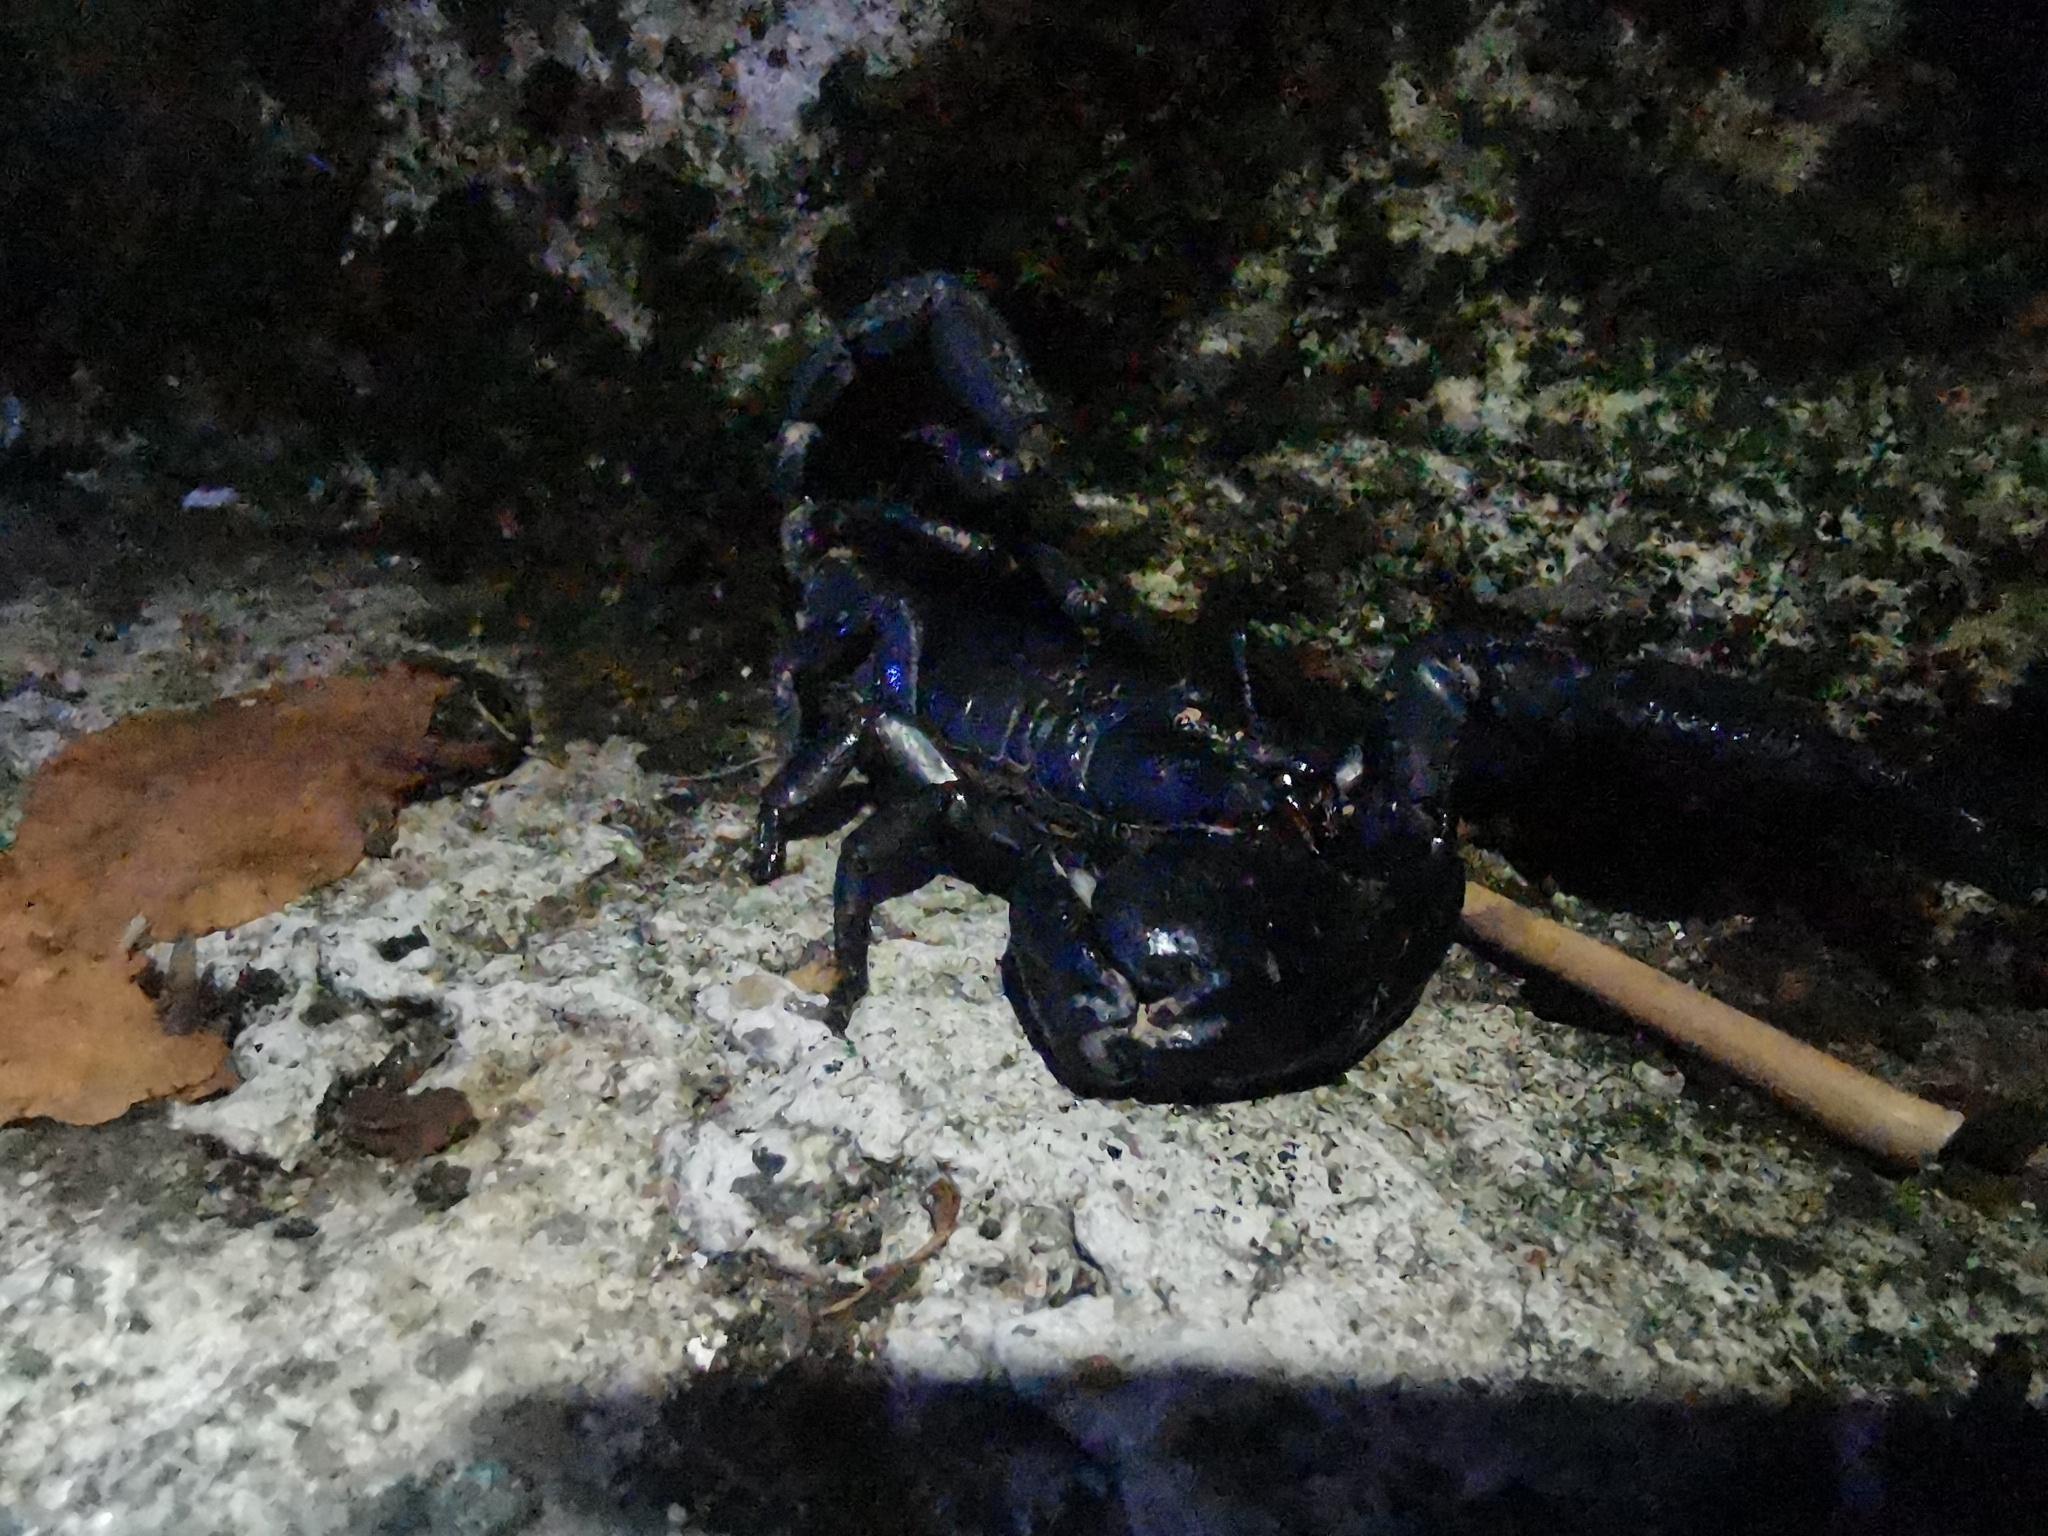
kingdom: Animalia
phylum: Arthropoda
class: Arachnida
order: Scorpiones
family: Scorpionidae
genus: Heterometrus
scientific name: Heterometrus silenus
